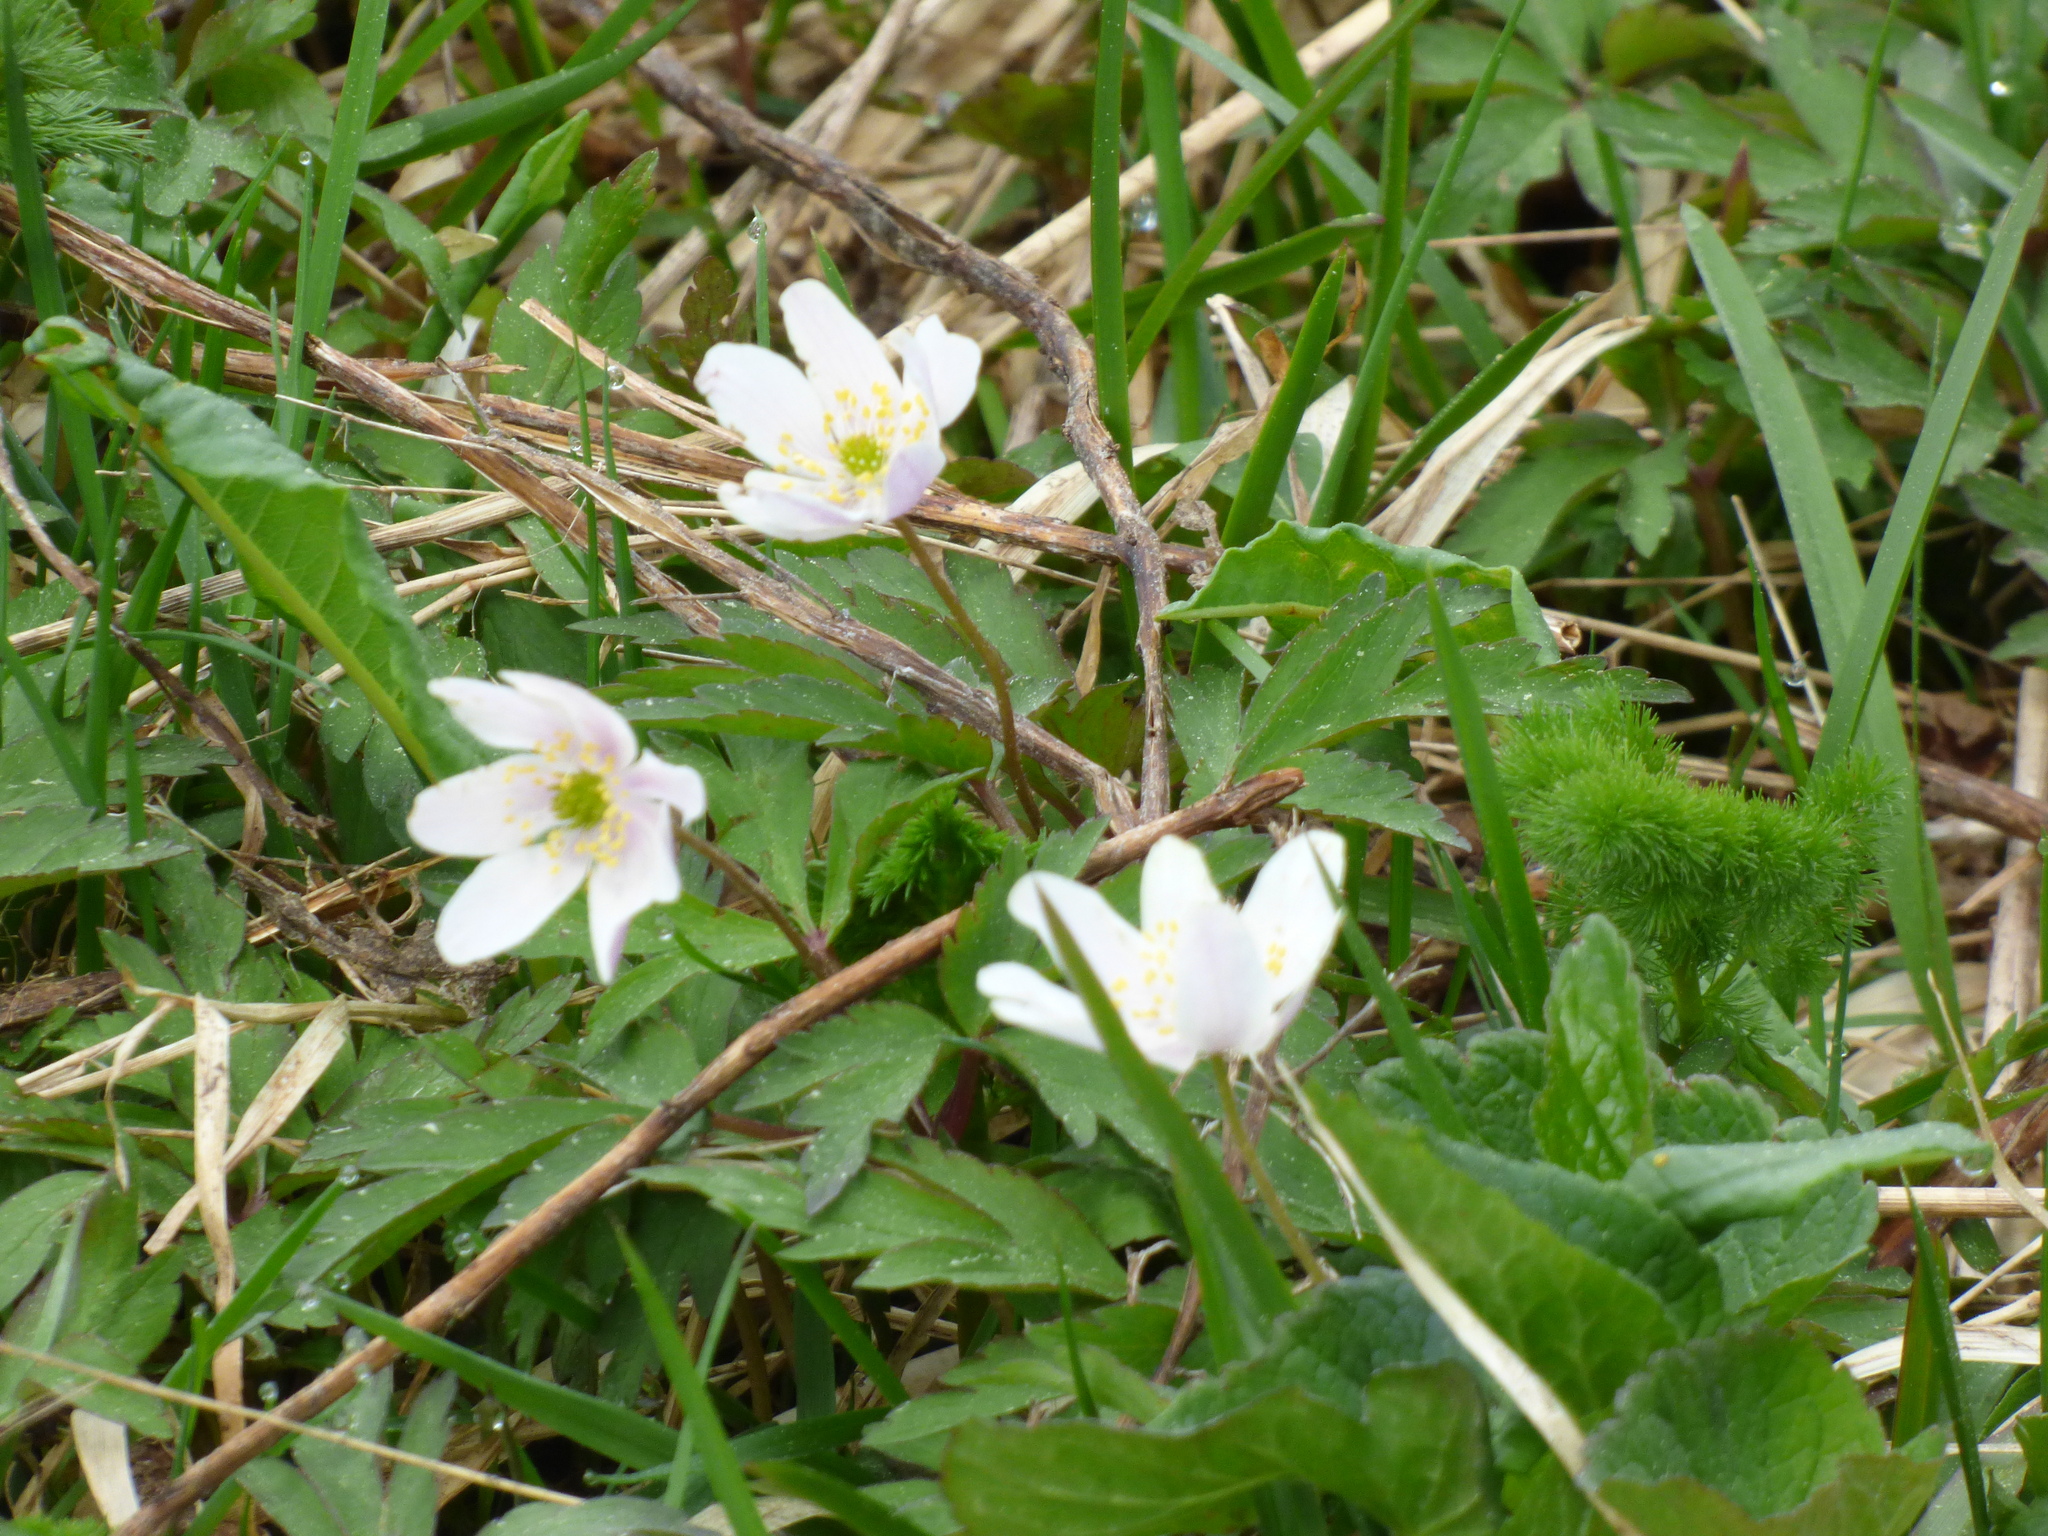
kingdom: Plantae
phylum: Tracheophyta
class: Magnoliopsida
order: Ranunculales
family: Ranunculaceae
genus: Anemone
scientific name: Anemone nemorosa
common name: Wood anemone
